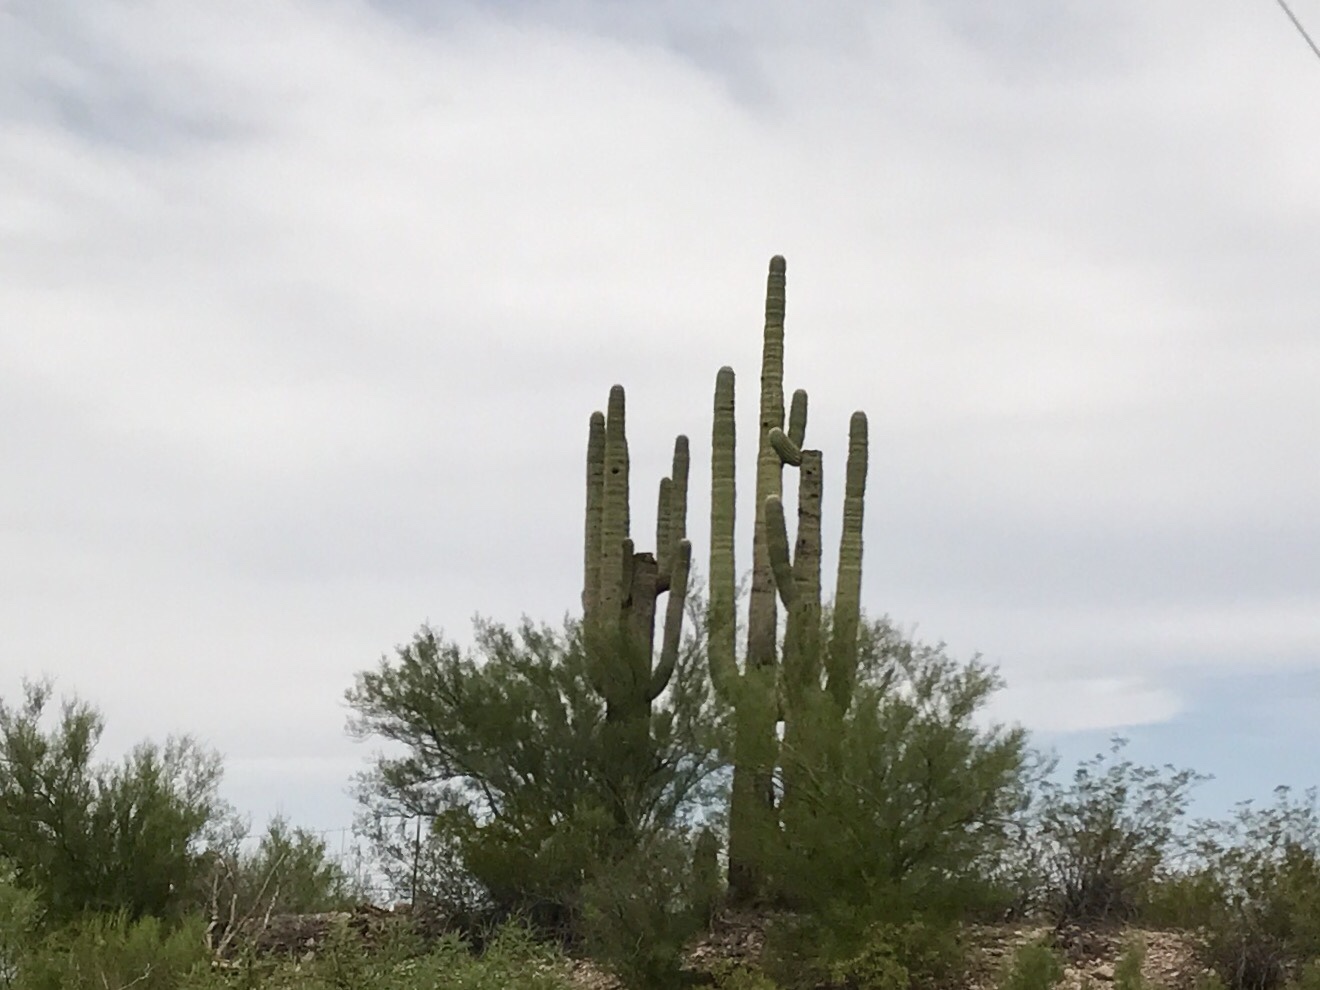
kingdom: Plantae
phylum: Tracheophyta
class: Magnoliopsida
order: Caryophyllales
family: Cactaceae
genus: Carnegiea
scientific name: Carnegiea gigantea
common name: Saguaro
